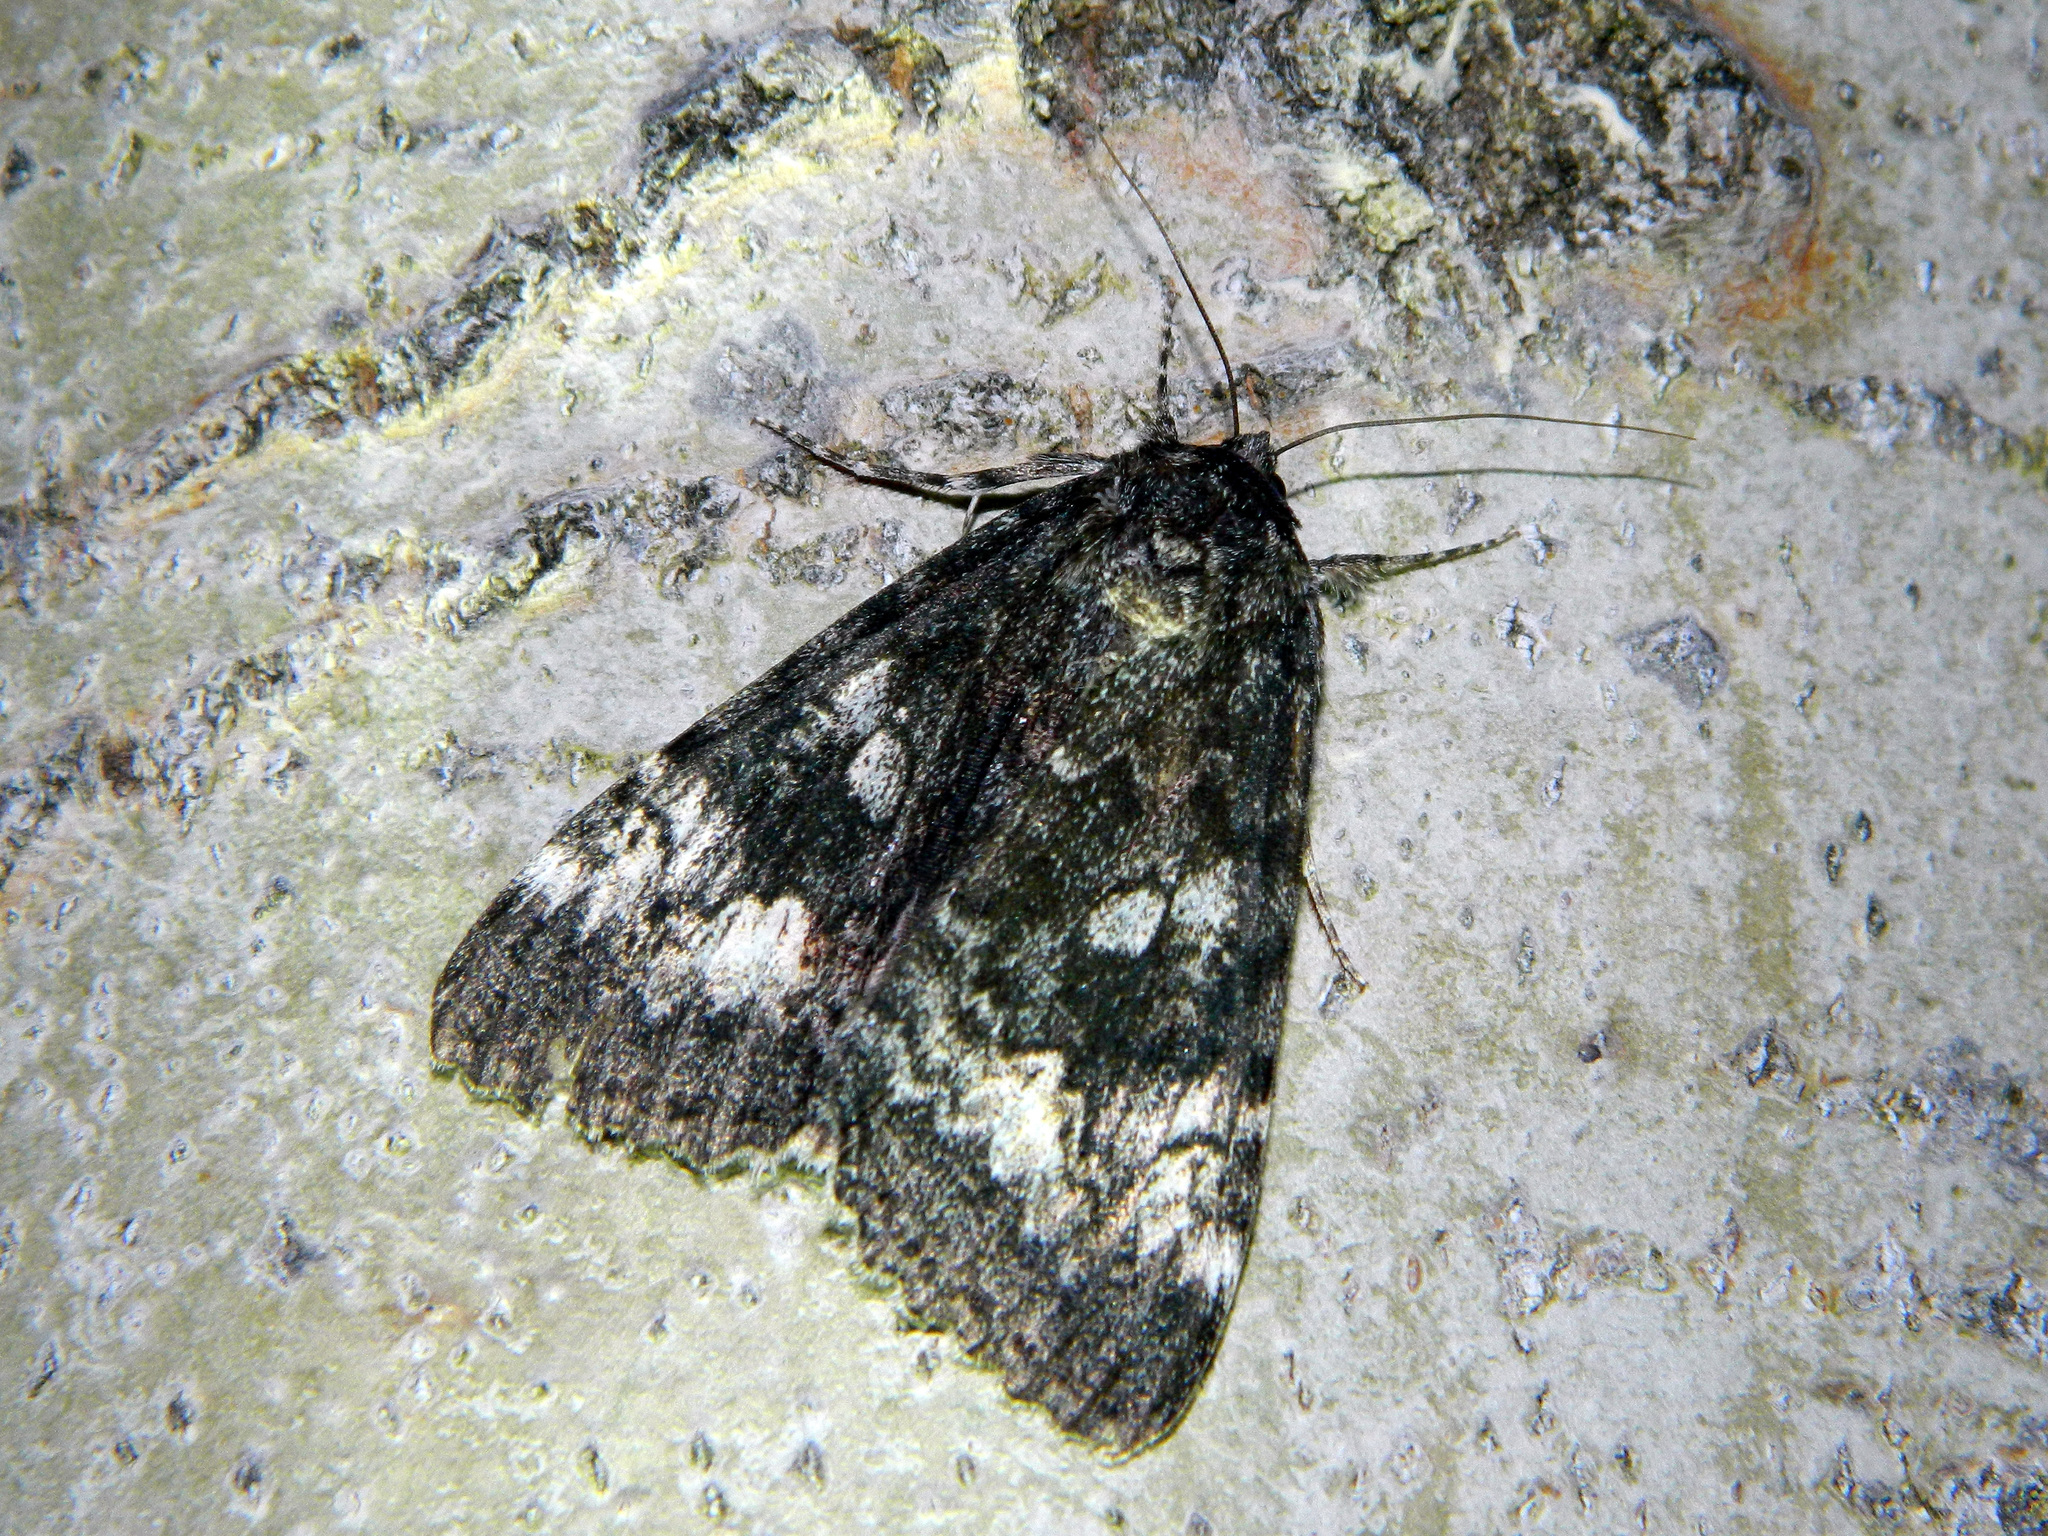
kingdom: Animalia
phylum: Arthropoda
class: Insecta
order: Lepidoptera
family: Erebidae
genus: Catocala
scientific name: Catocala briseis
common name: Briseis underwing
